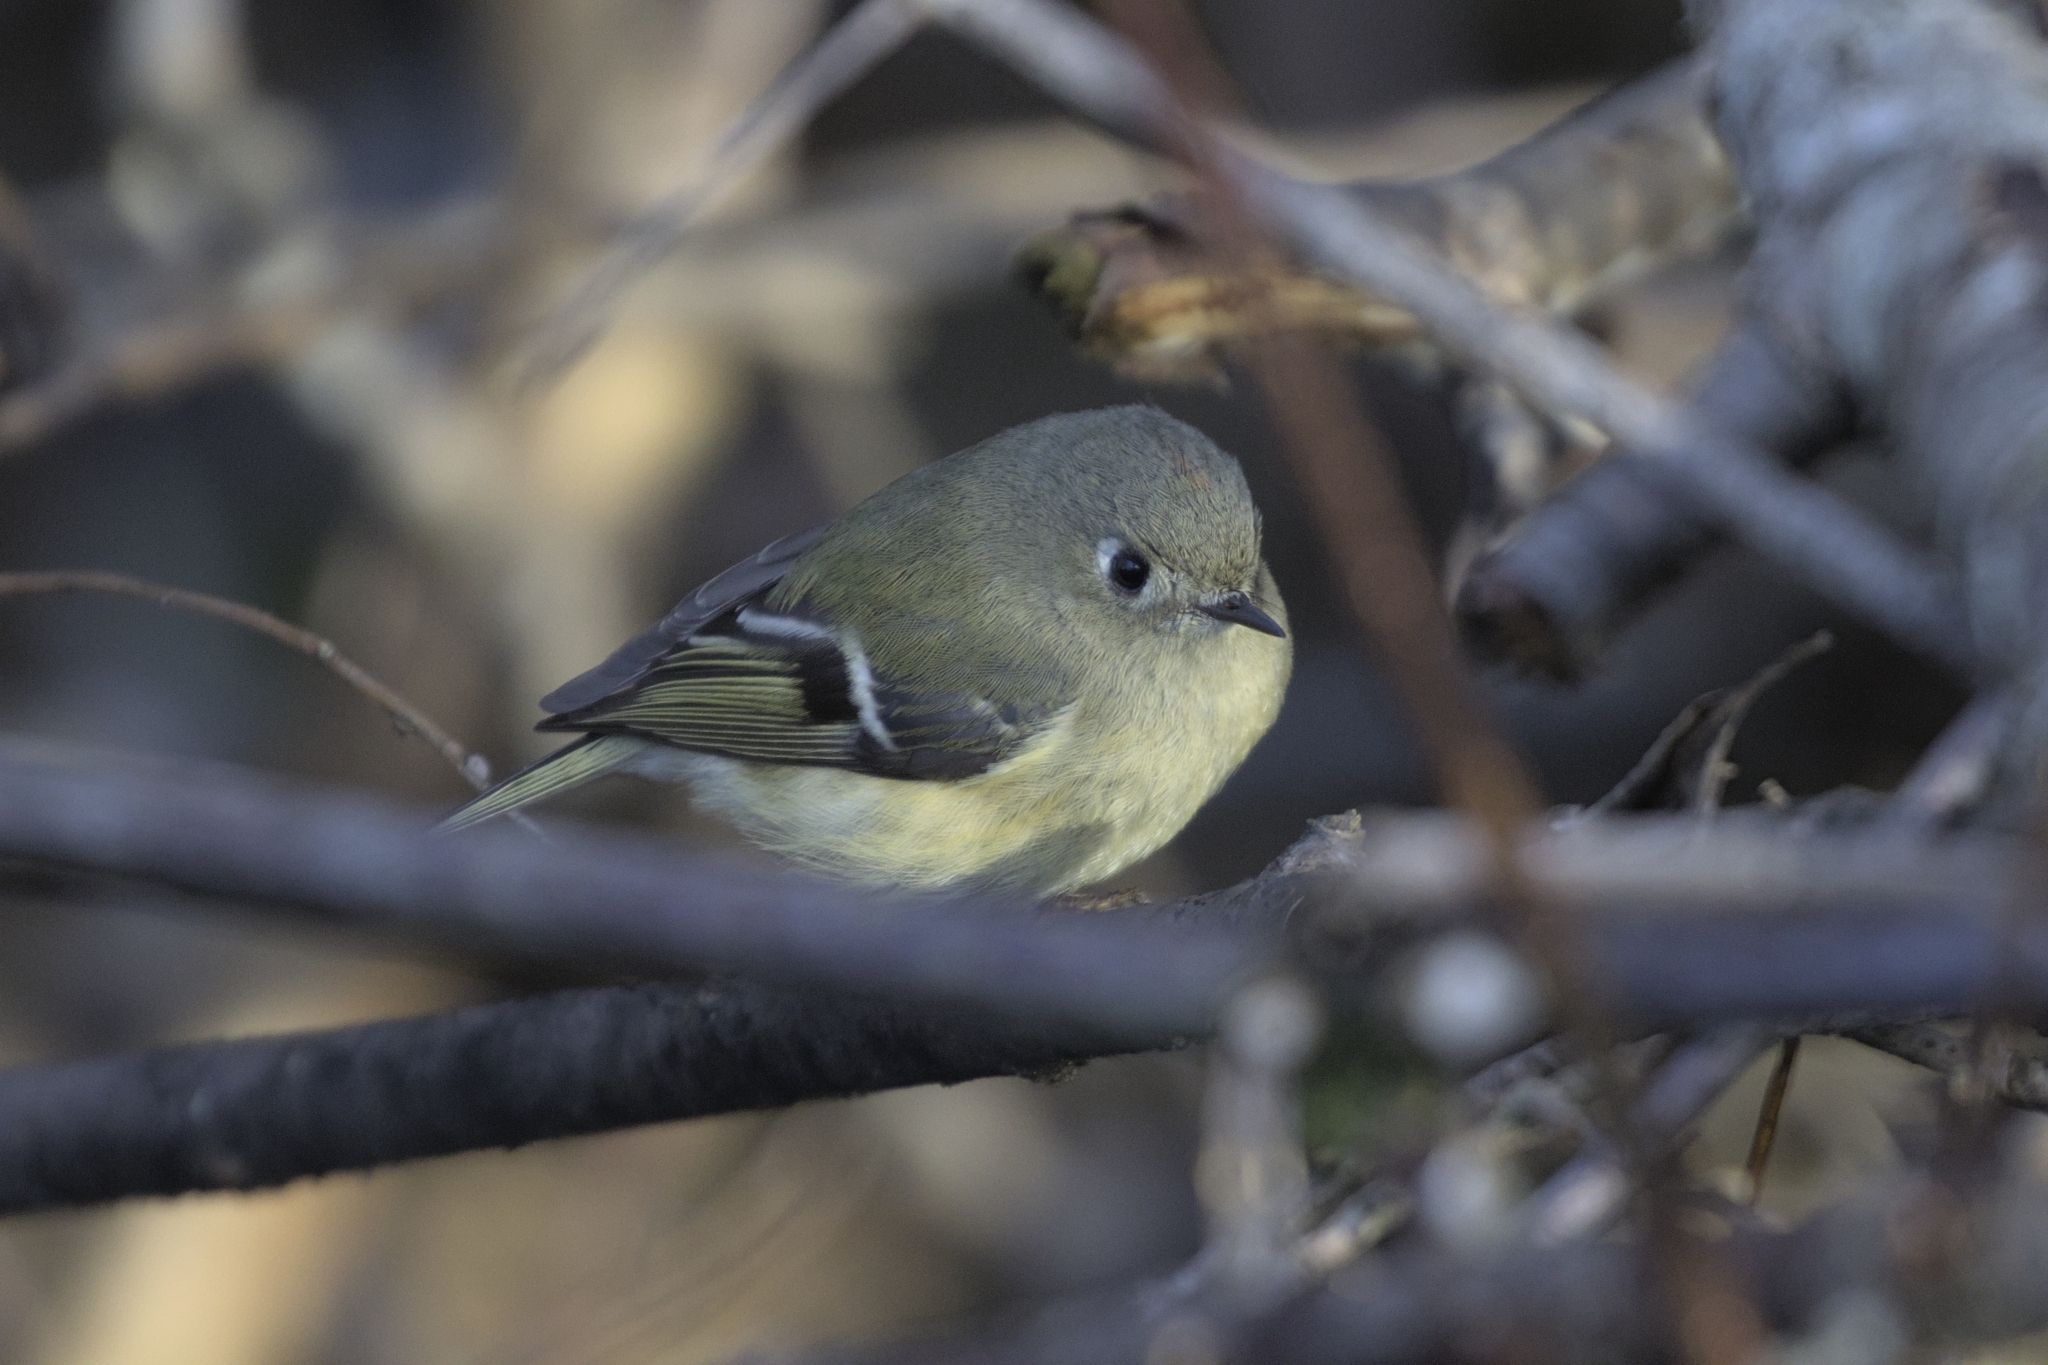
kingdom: Animalia
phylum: Chordata
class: Aves
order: Passeriformes
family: Regulidae
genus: Regulus
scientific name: Regulus calendula
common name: Ruby-crowned kinglet
